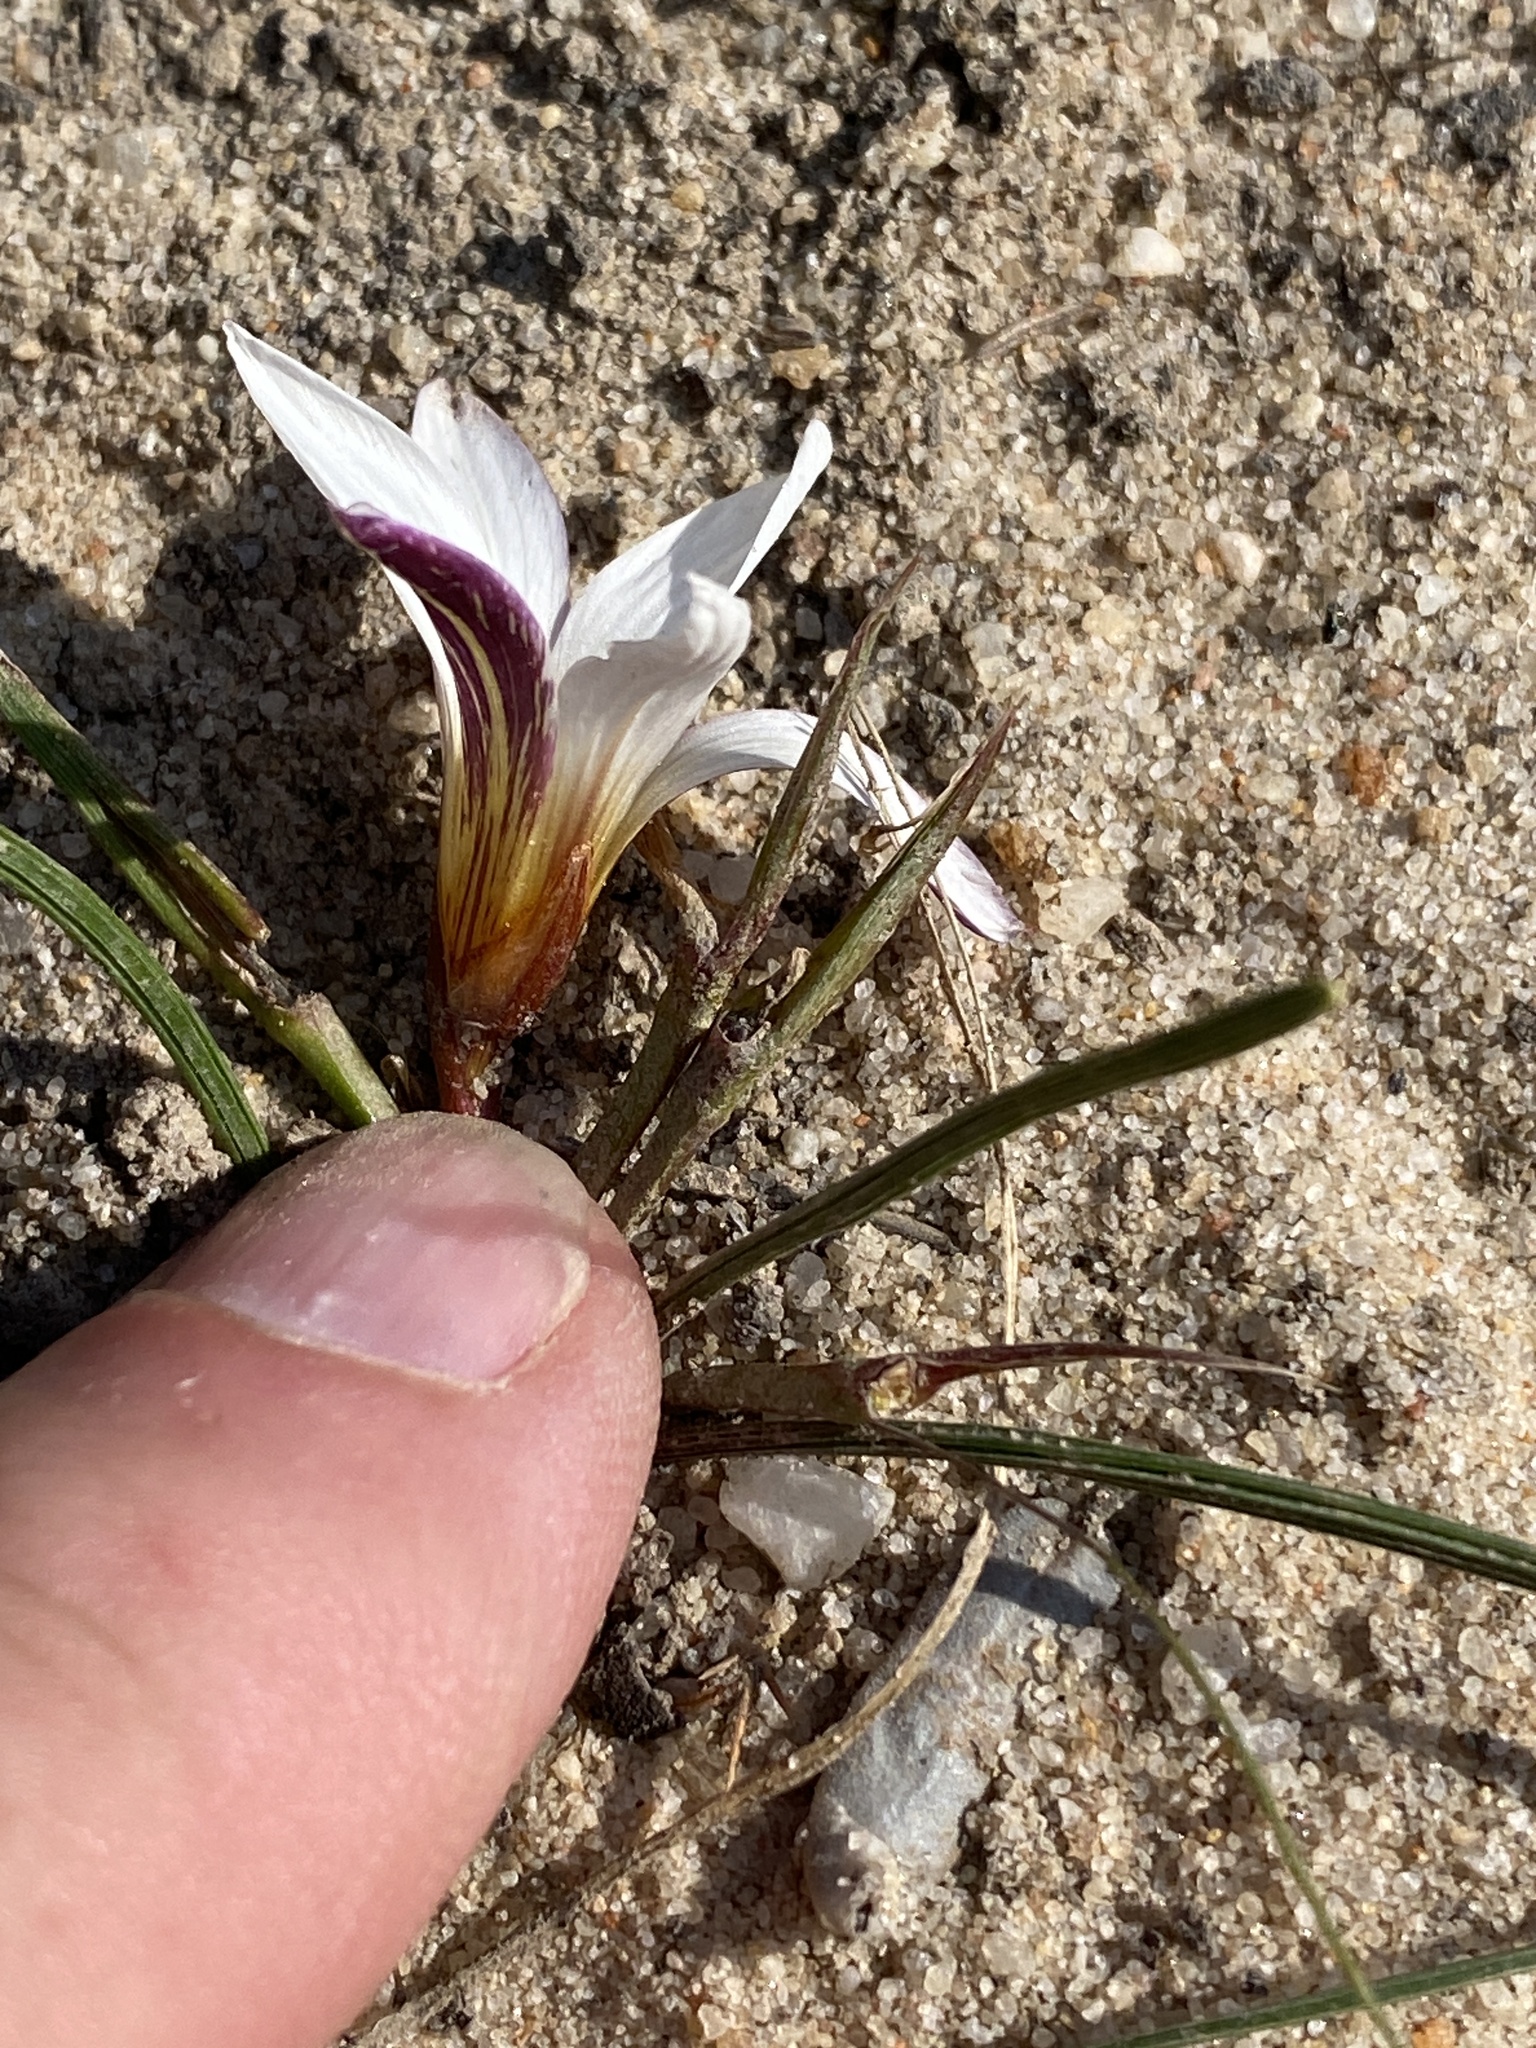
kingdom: Plantae
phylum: Tracheophyta
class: Liliopsida
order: Asparagales
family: Iridaceae
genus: Romulea
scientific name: Romulea toximontana
